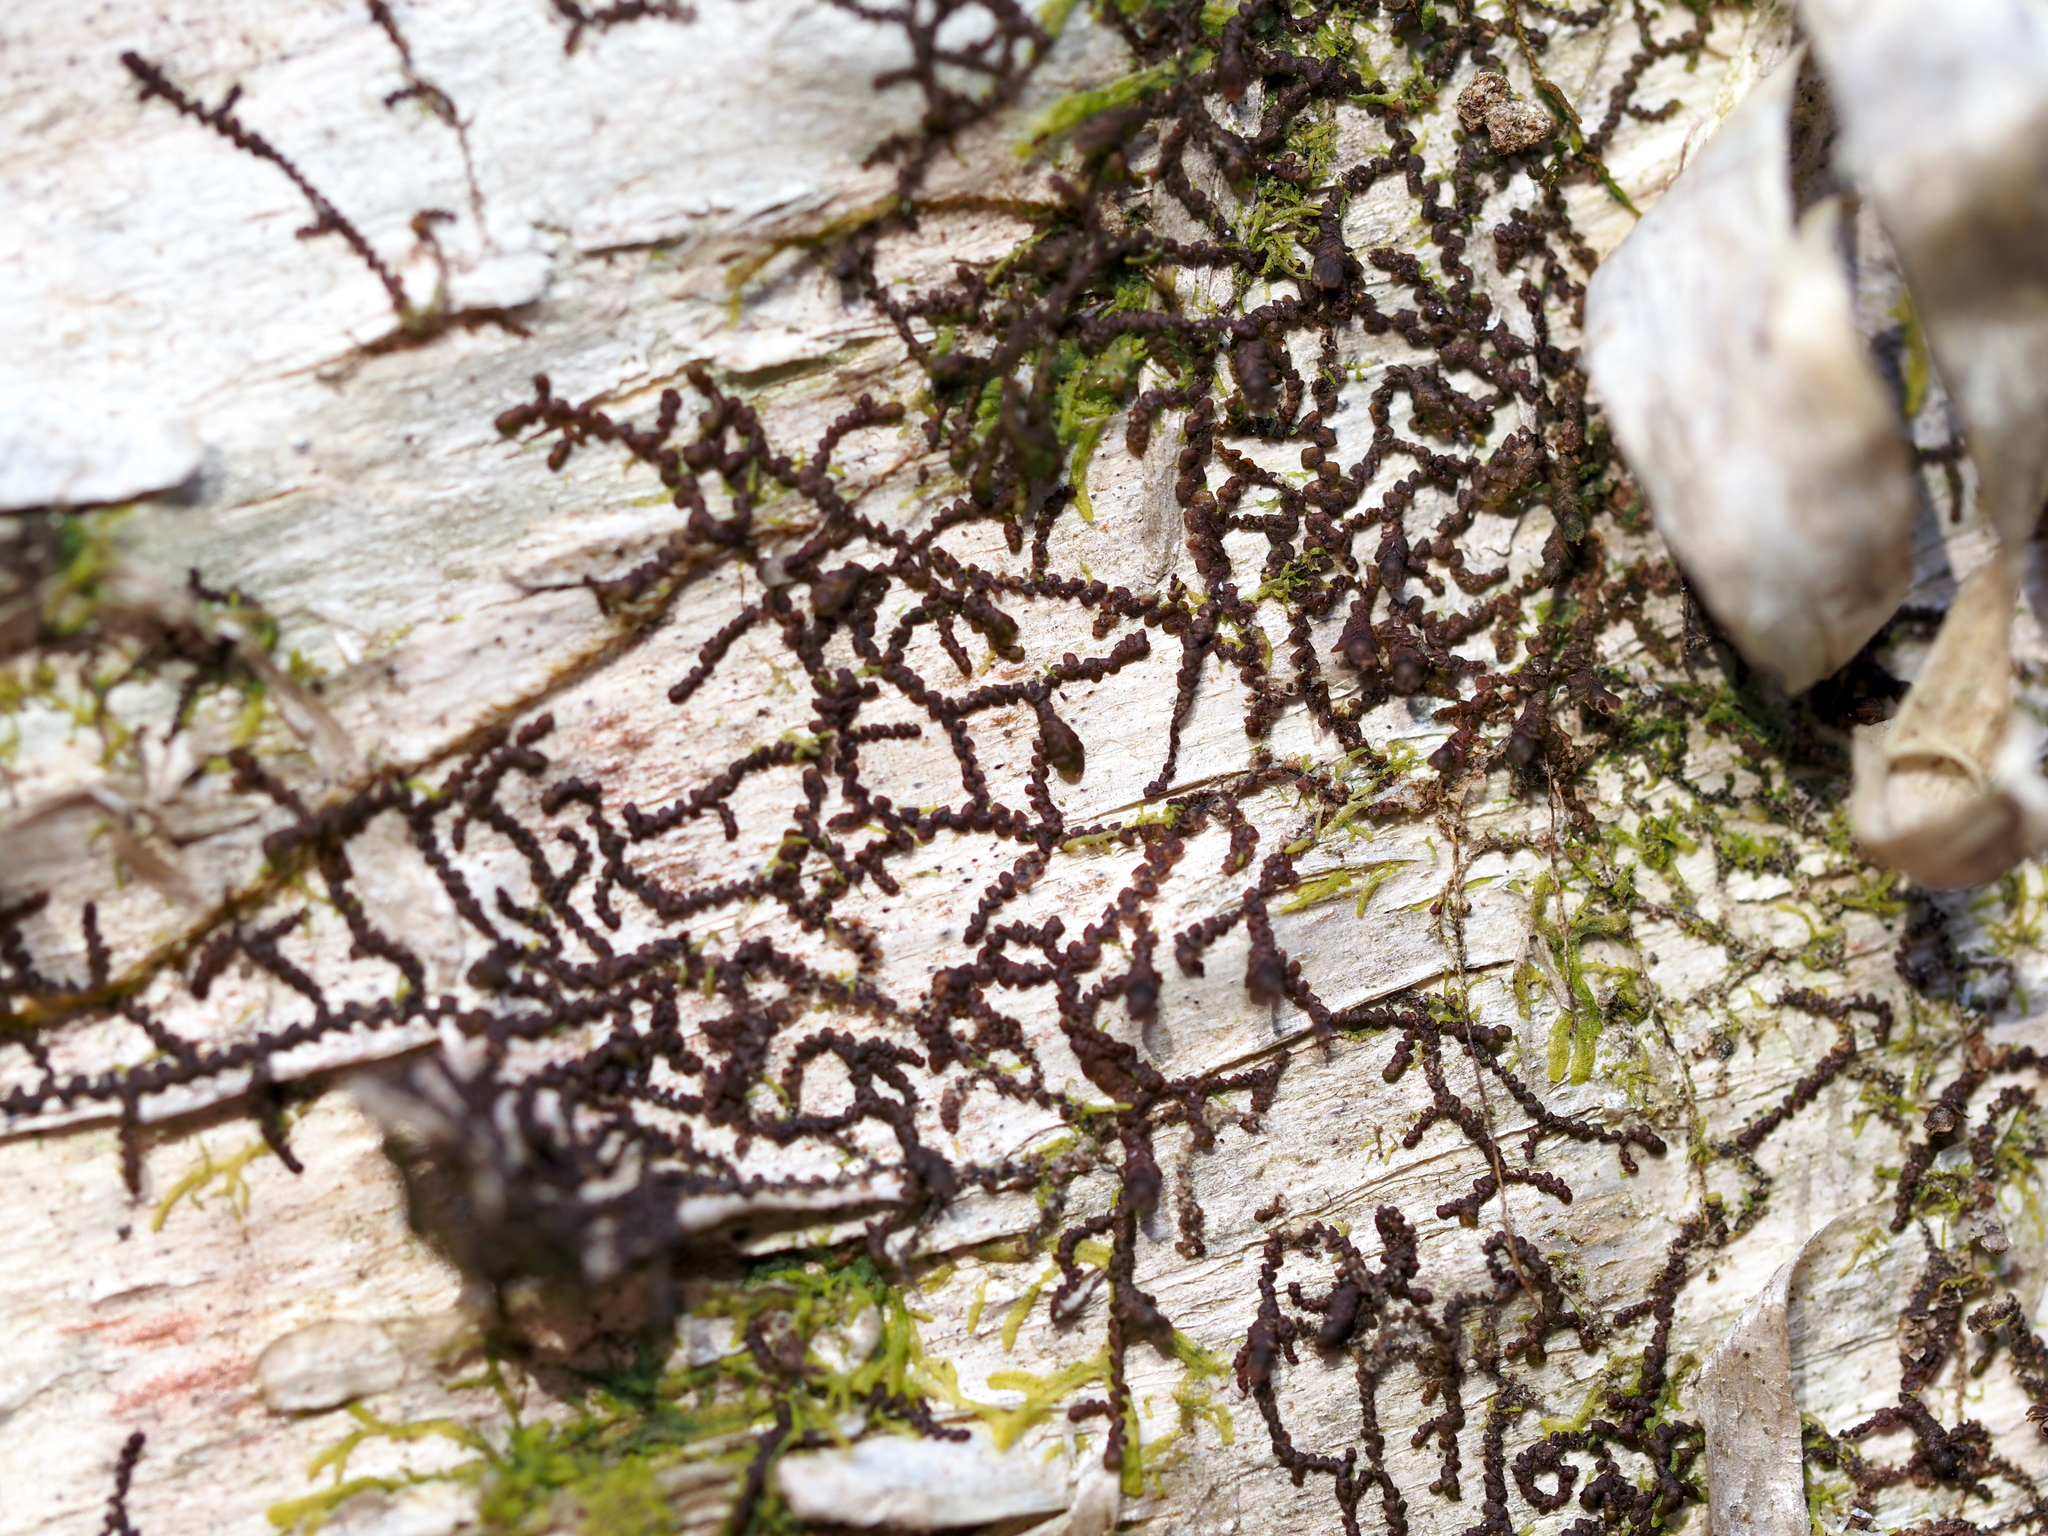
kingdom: Plantae
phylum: Marchantiophyta
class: Jungermanniopsida
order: Porellales
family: Frullaniaceae
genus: Frullania
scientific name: Frullania eboracensis
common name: New york scalewort
